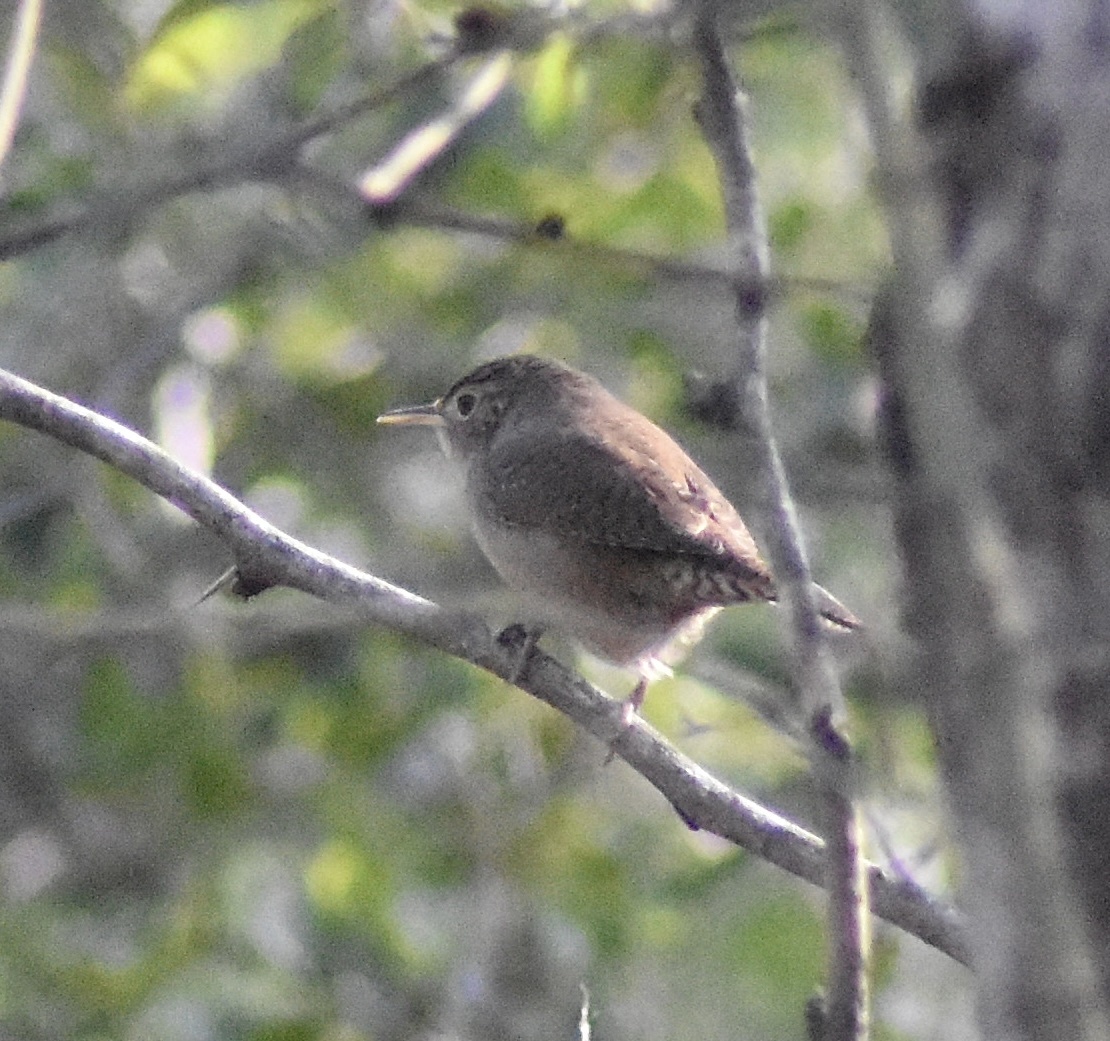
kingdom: Animalia
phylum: Chordata
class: Aves
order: Passeriformes
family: Troglodytidae
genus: Troglodytes
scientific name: Troglodytes aedon
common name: House wren
